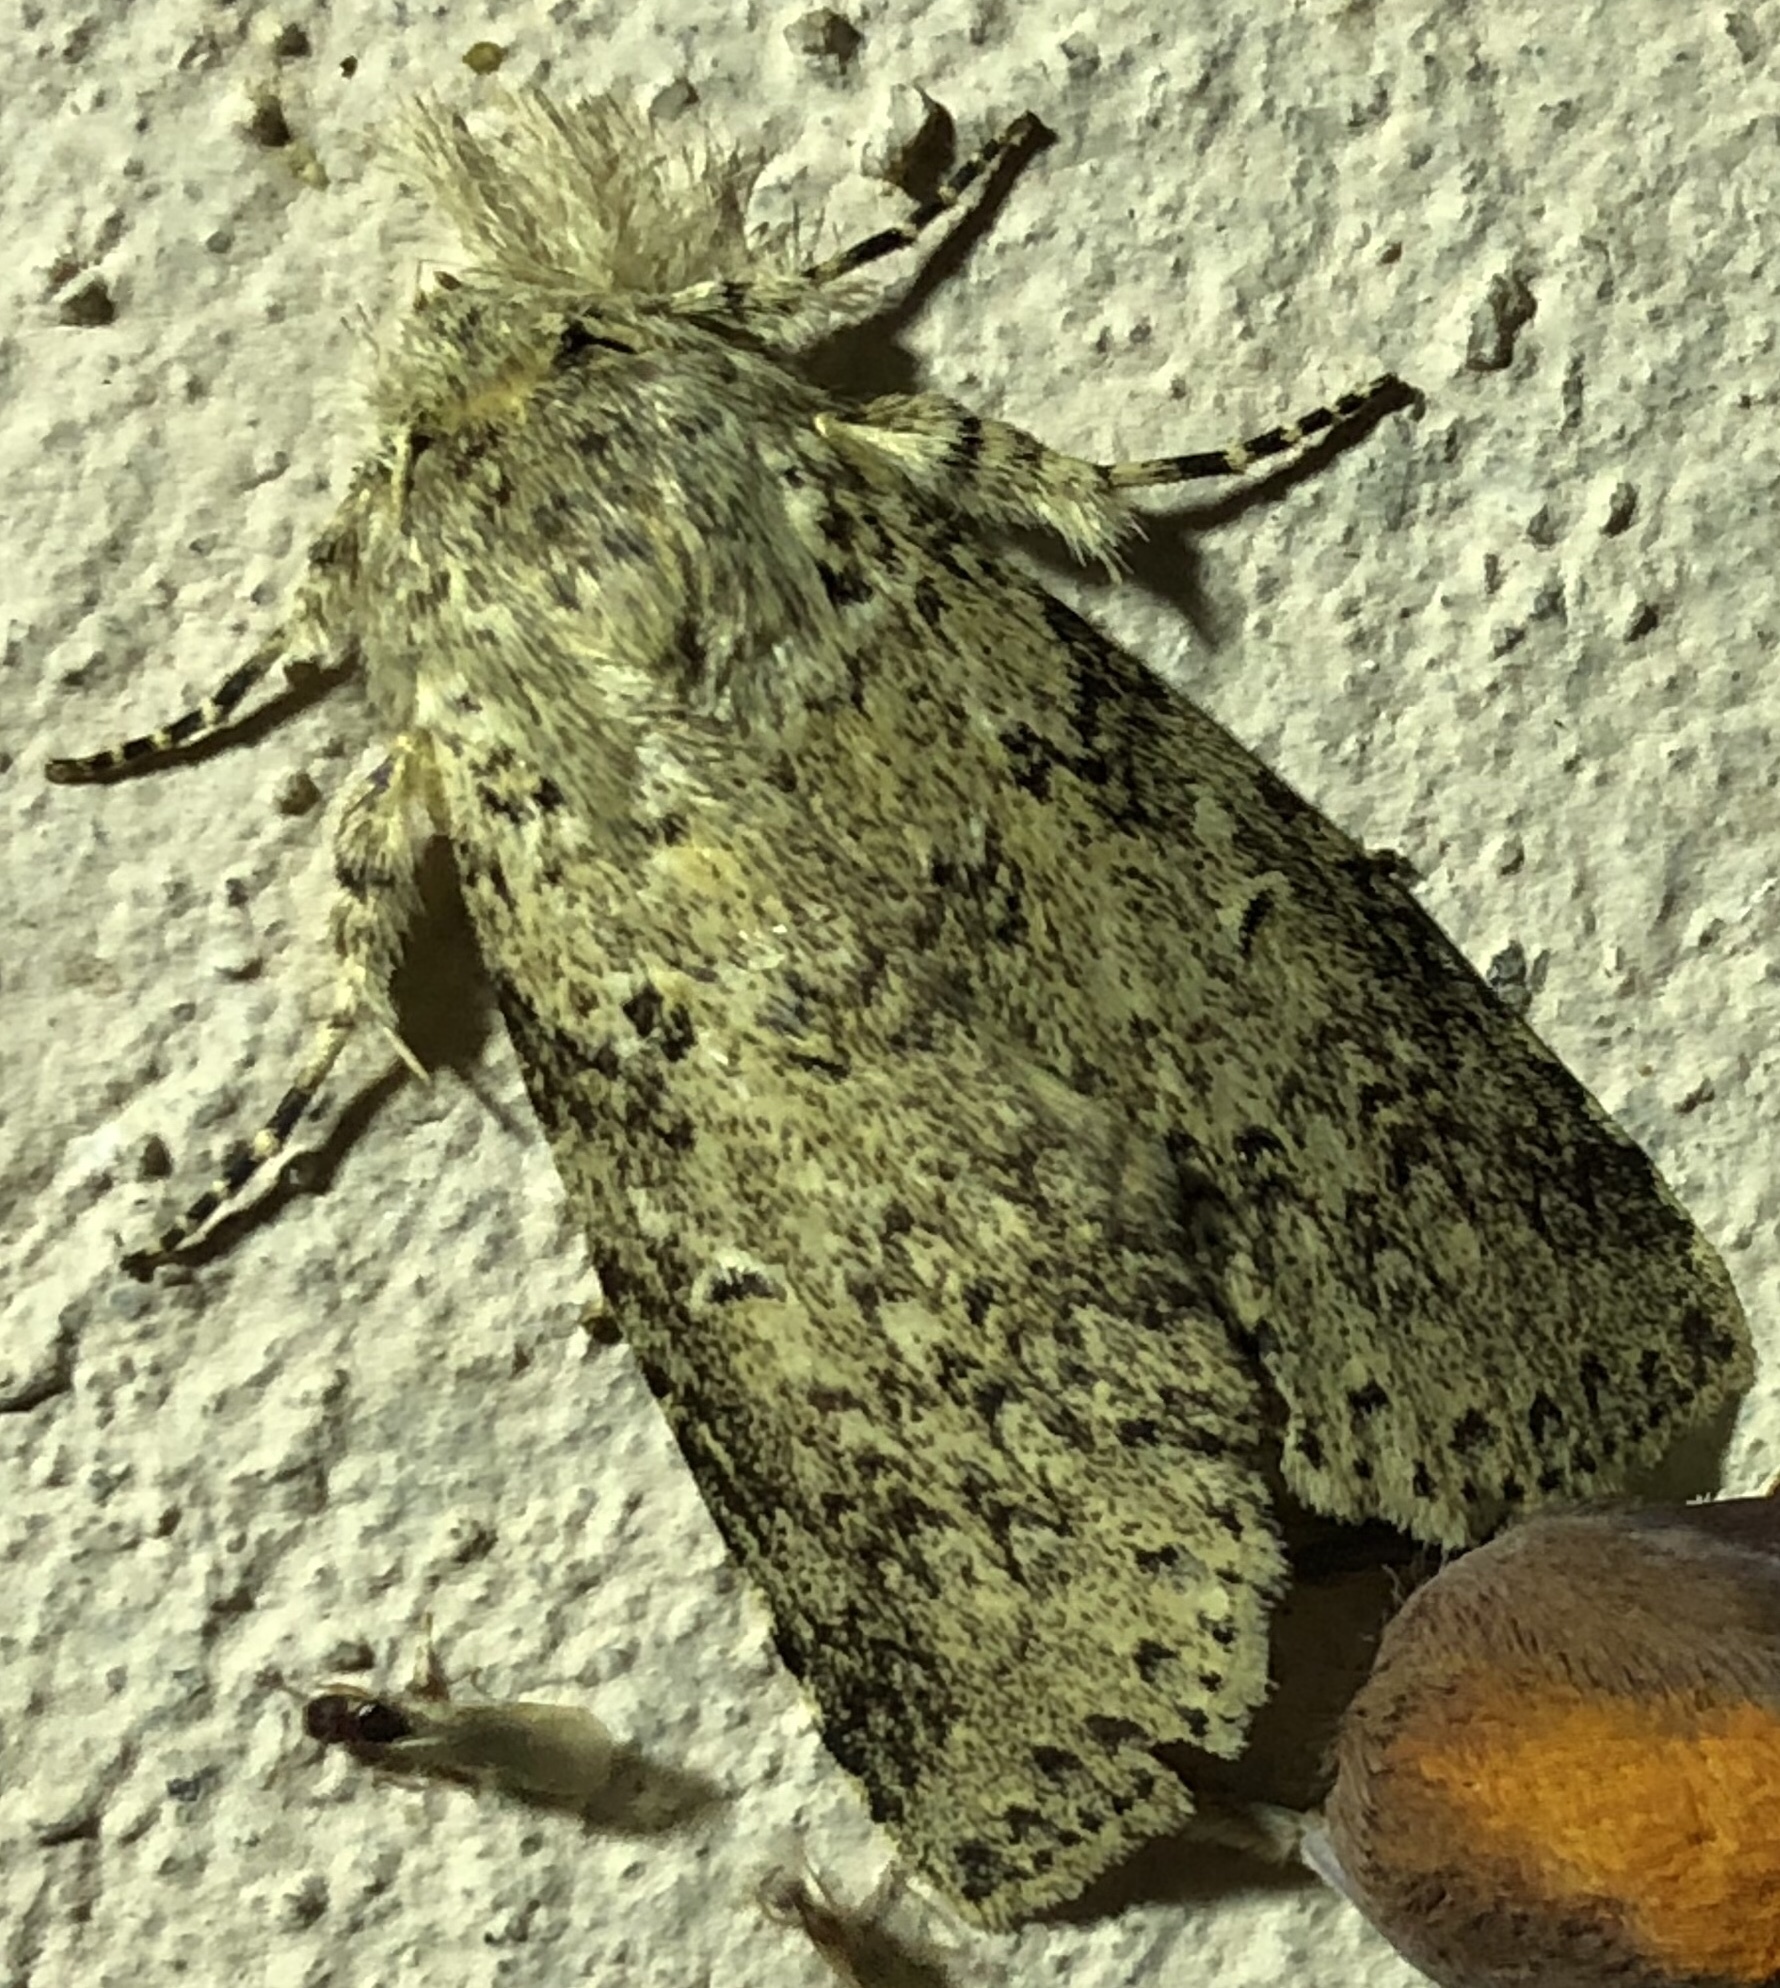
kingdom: Animalia
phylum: Arthropoda
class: Insecta
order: Lepidoptera
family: Notodontidae
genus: Meragisa
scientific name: Meragisa camiola
